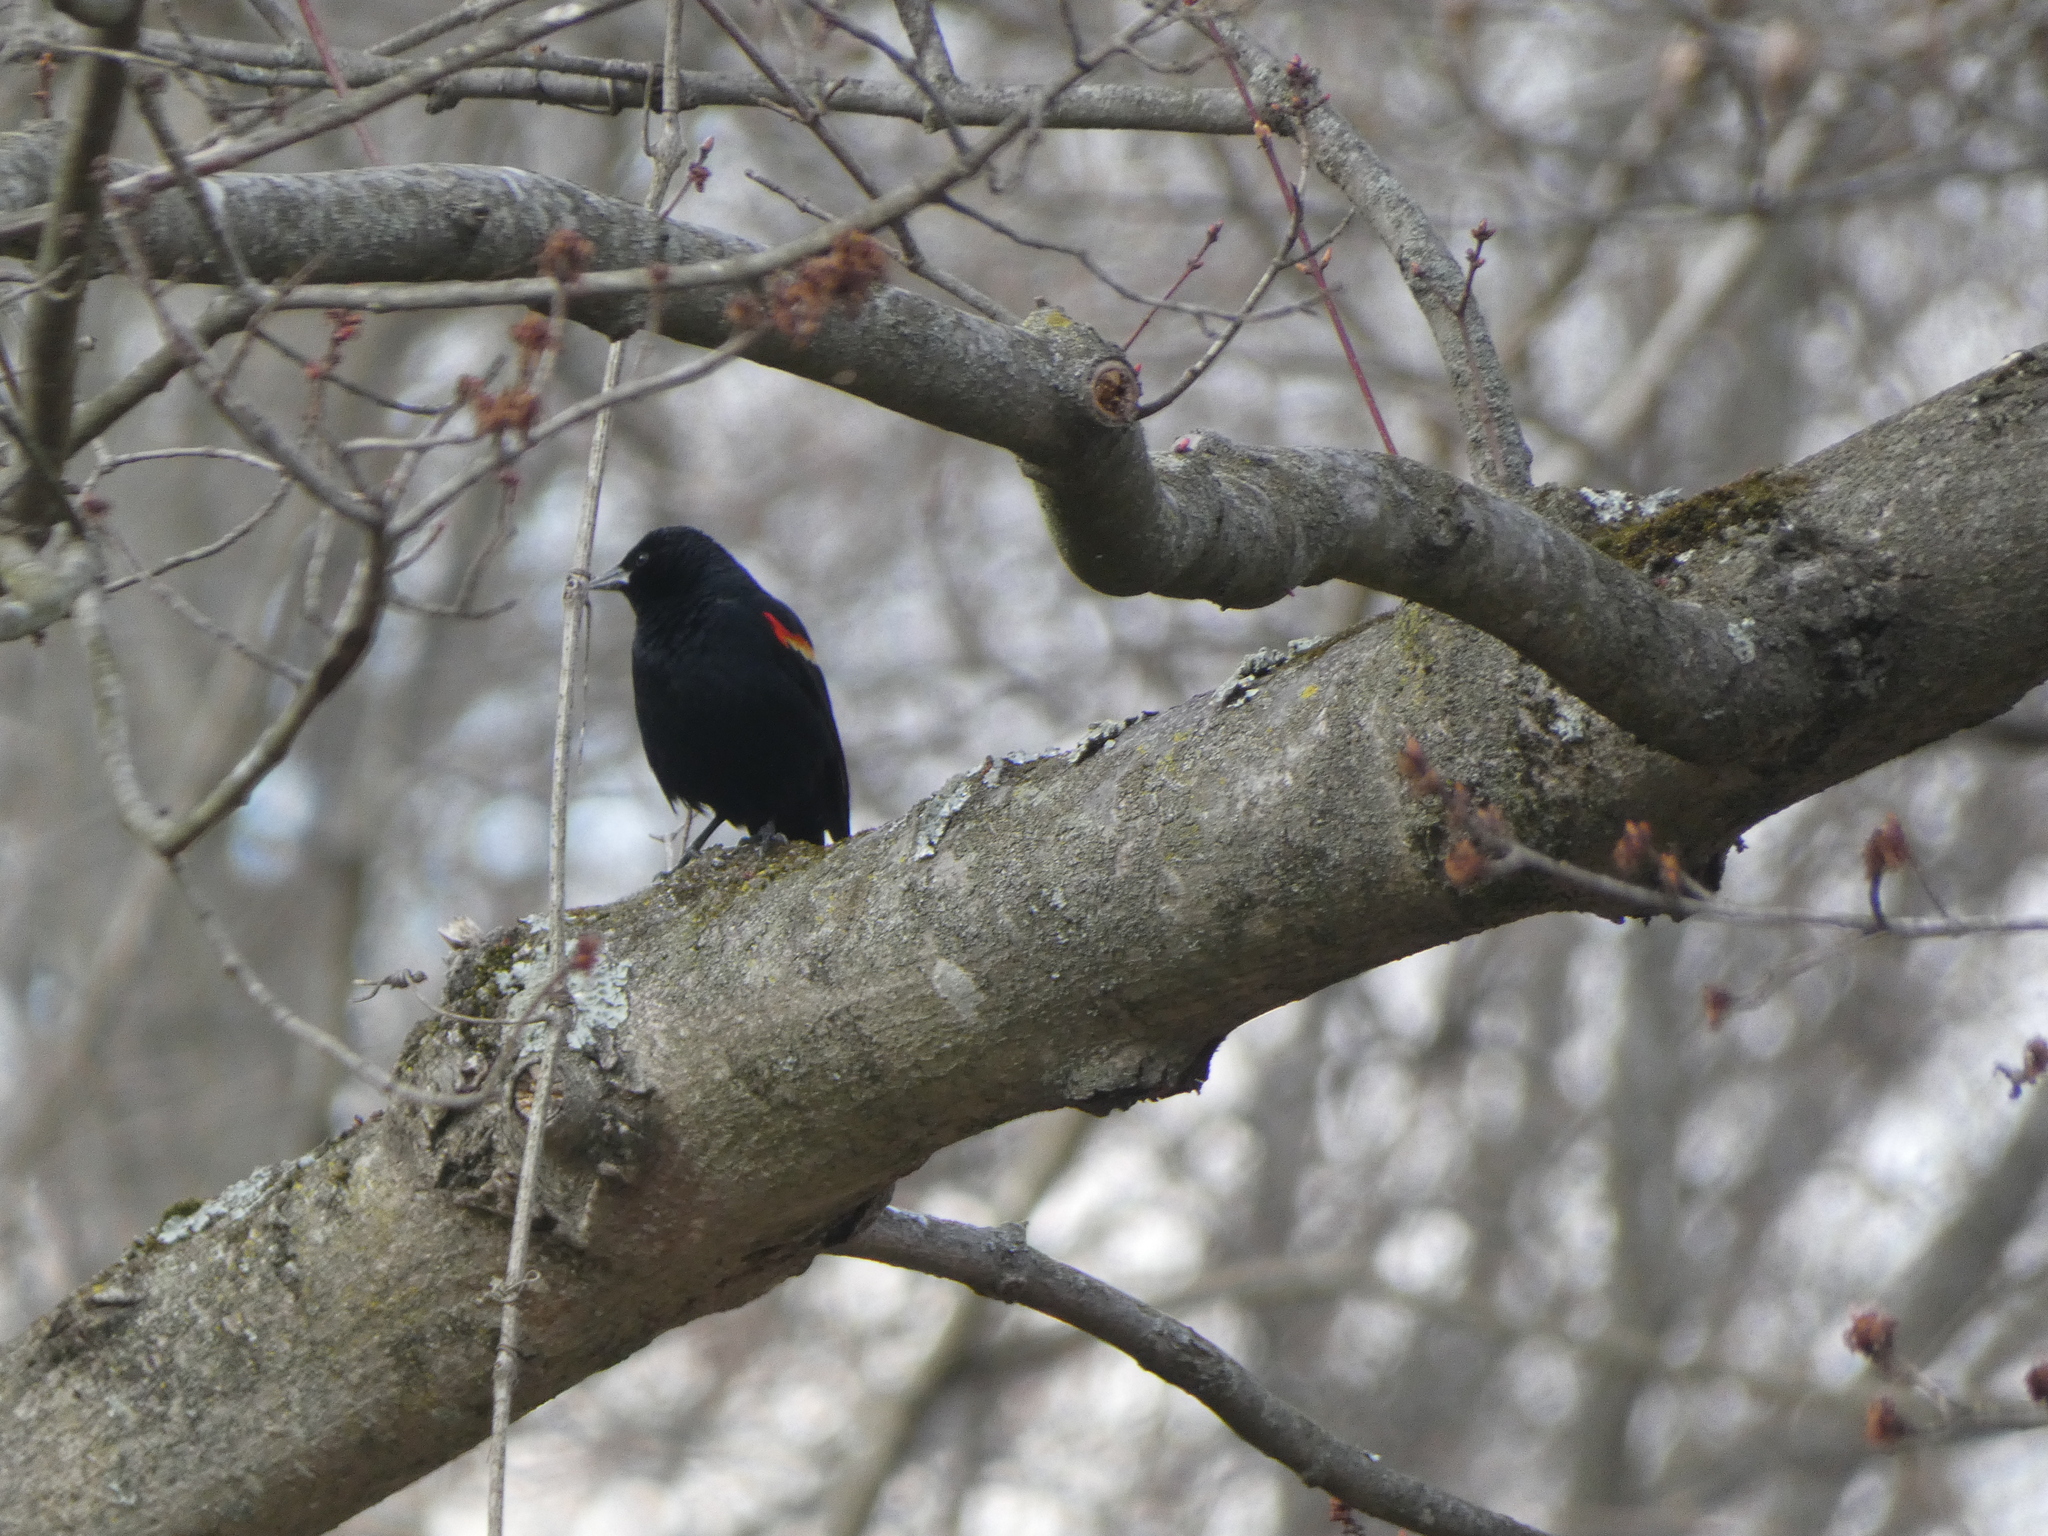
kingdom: Animalia
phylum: Chordata
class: Aves
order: Passeriformes
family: Icteridae
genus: Agelaius
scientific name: Agelaius phoeniceus
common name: Red-winged blackbird
